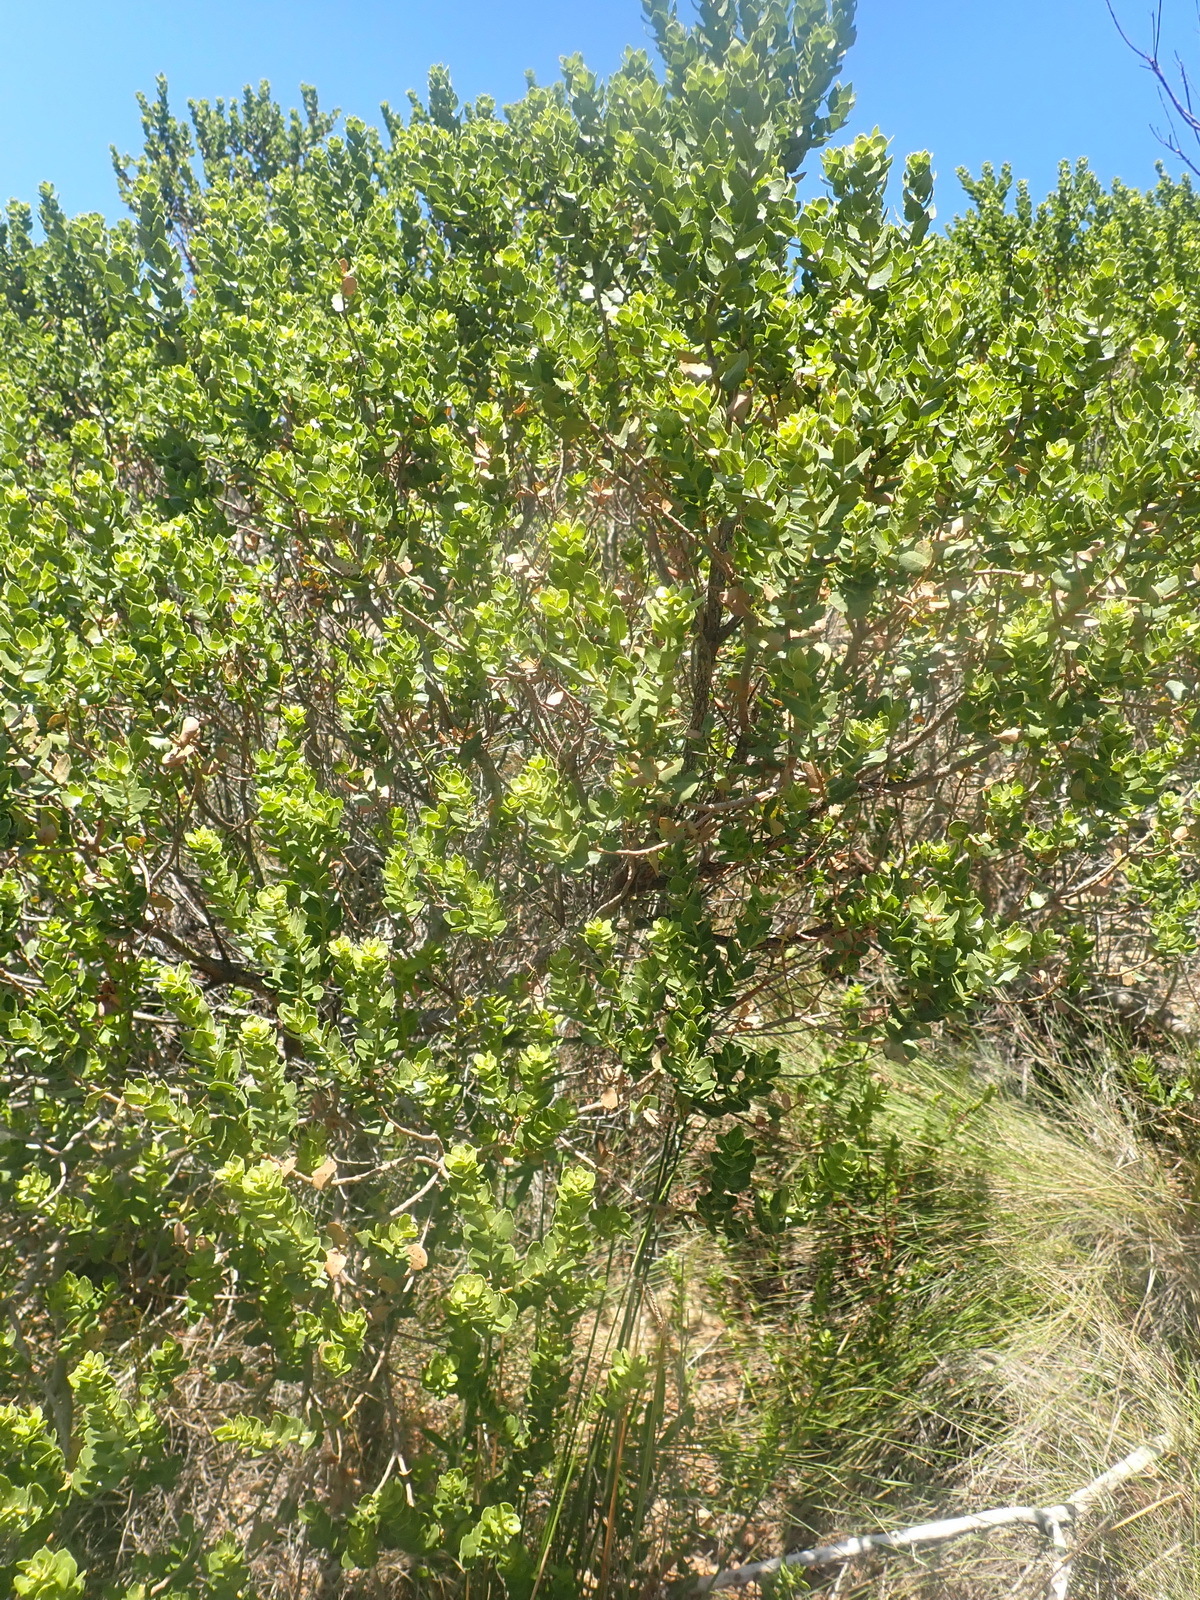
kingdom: Plantae
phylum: Tracheophyta
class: Magnoliopsida
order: Fagales
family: Myricaceae
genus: Morella
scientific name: Morella cordifolia
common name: Waxberry
